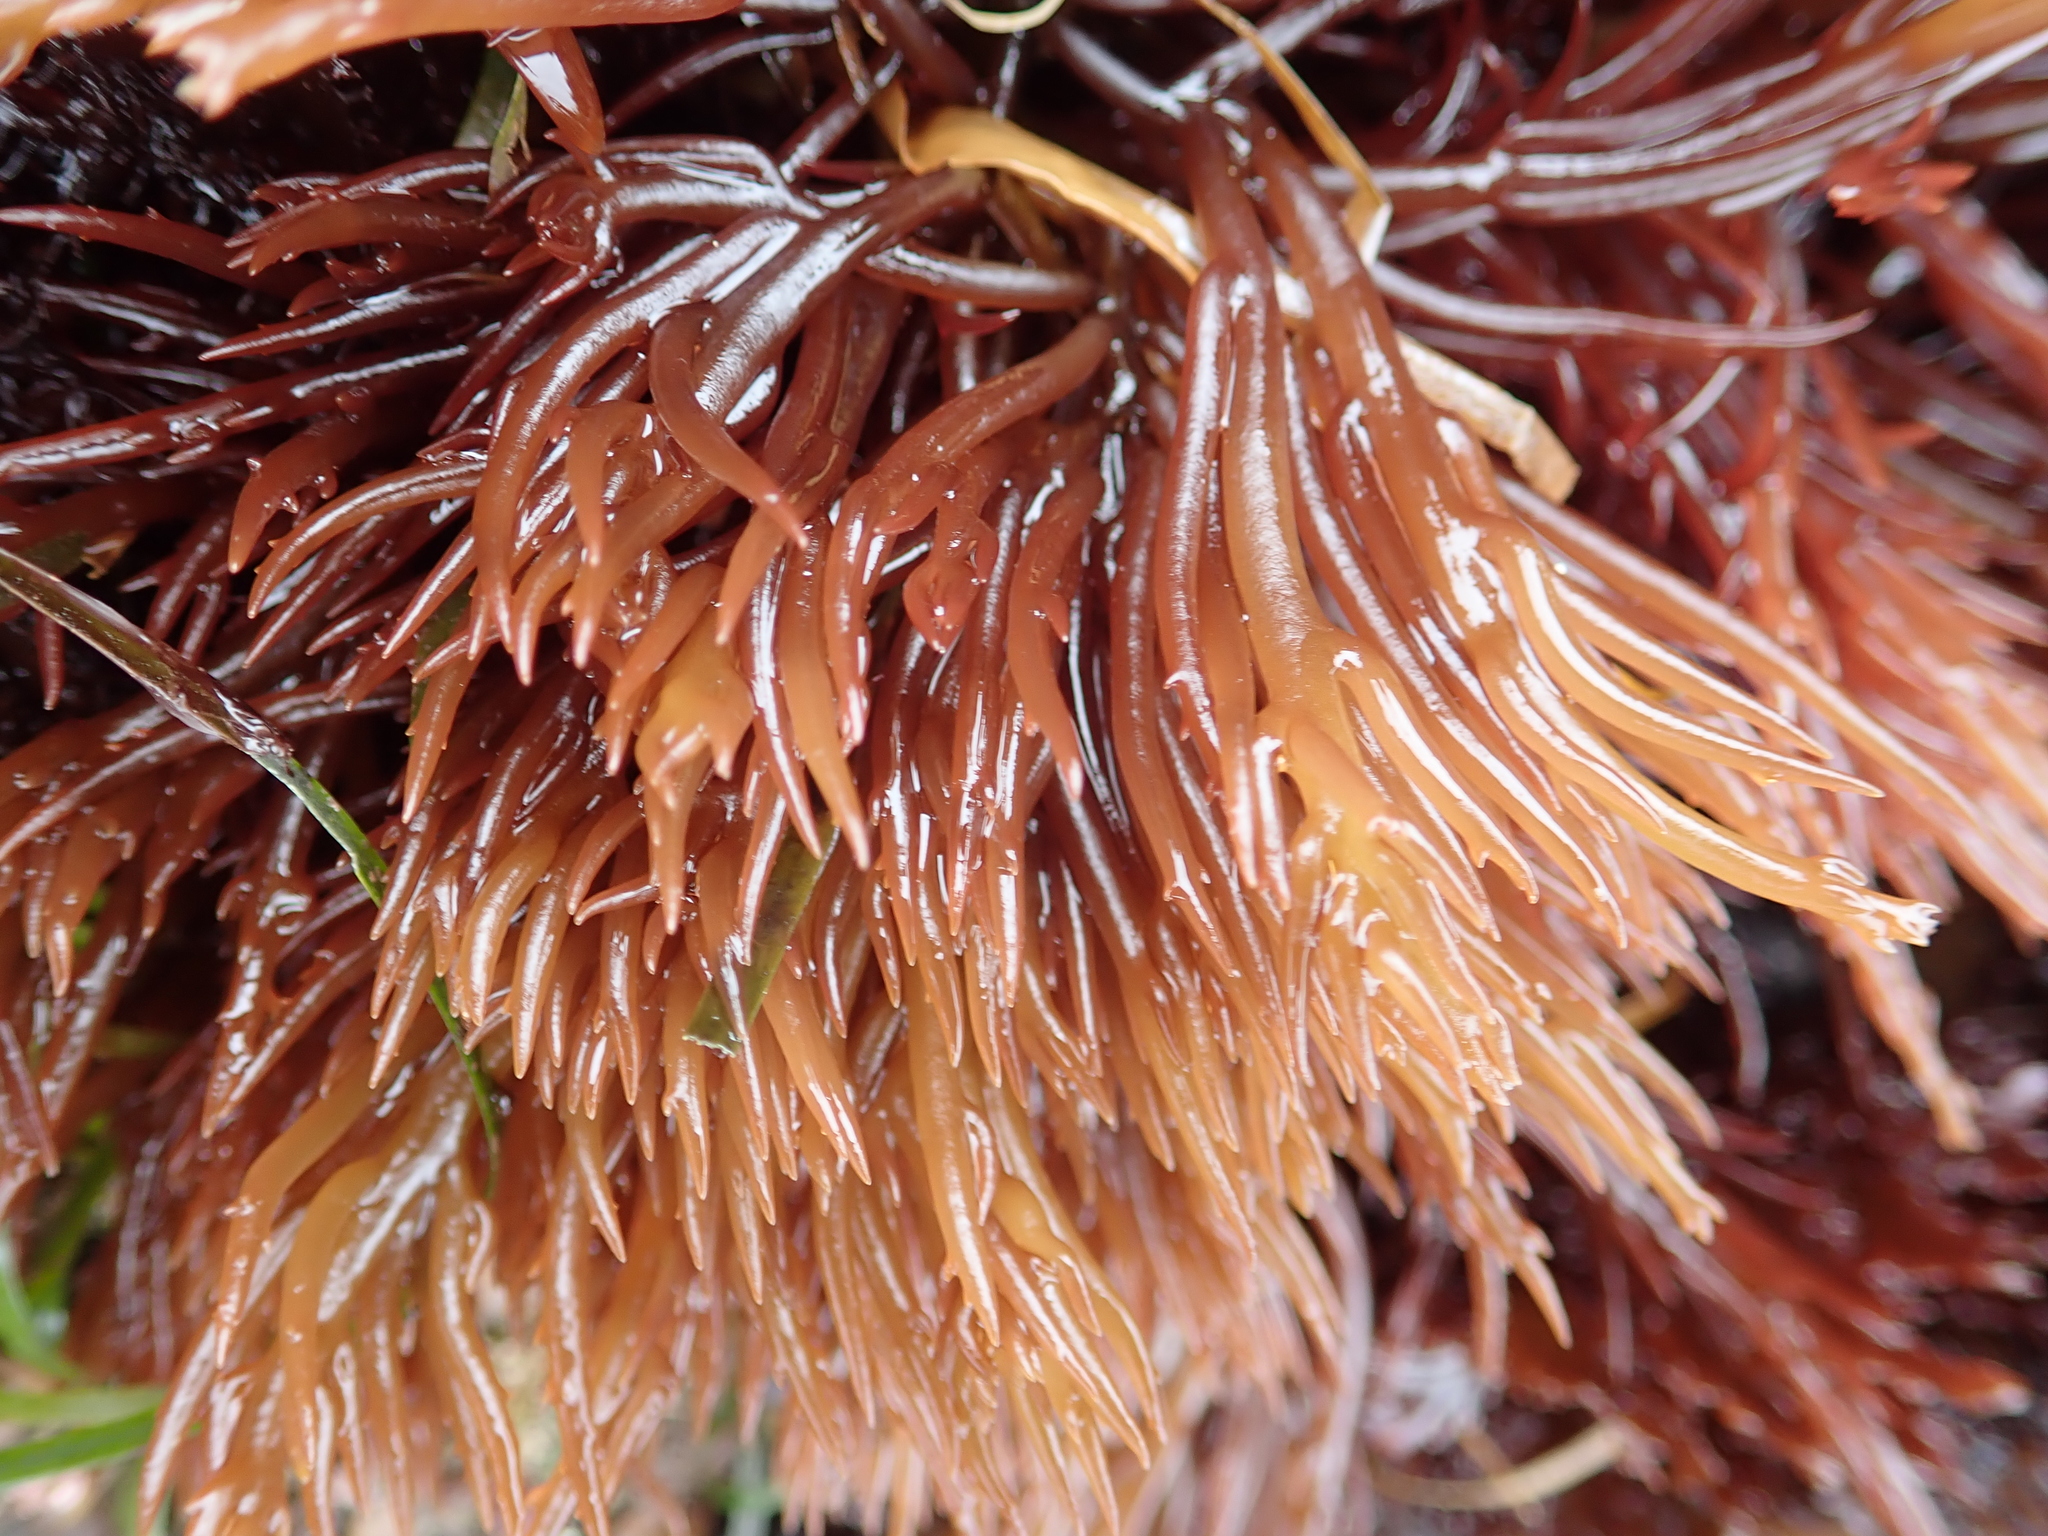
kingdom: Plantae
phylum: Rhodophyta
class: Florideophyceae
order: Gigartinales
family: Solieriaceae
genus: Sarcodiotheca
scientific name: Sarcodiotheca gaudichaudii
